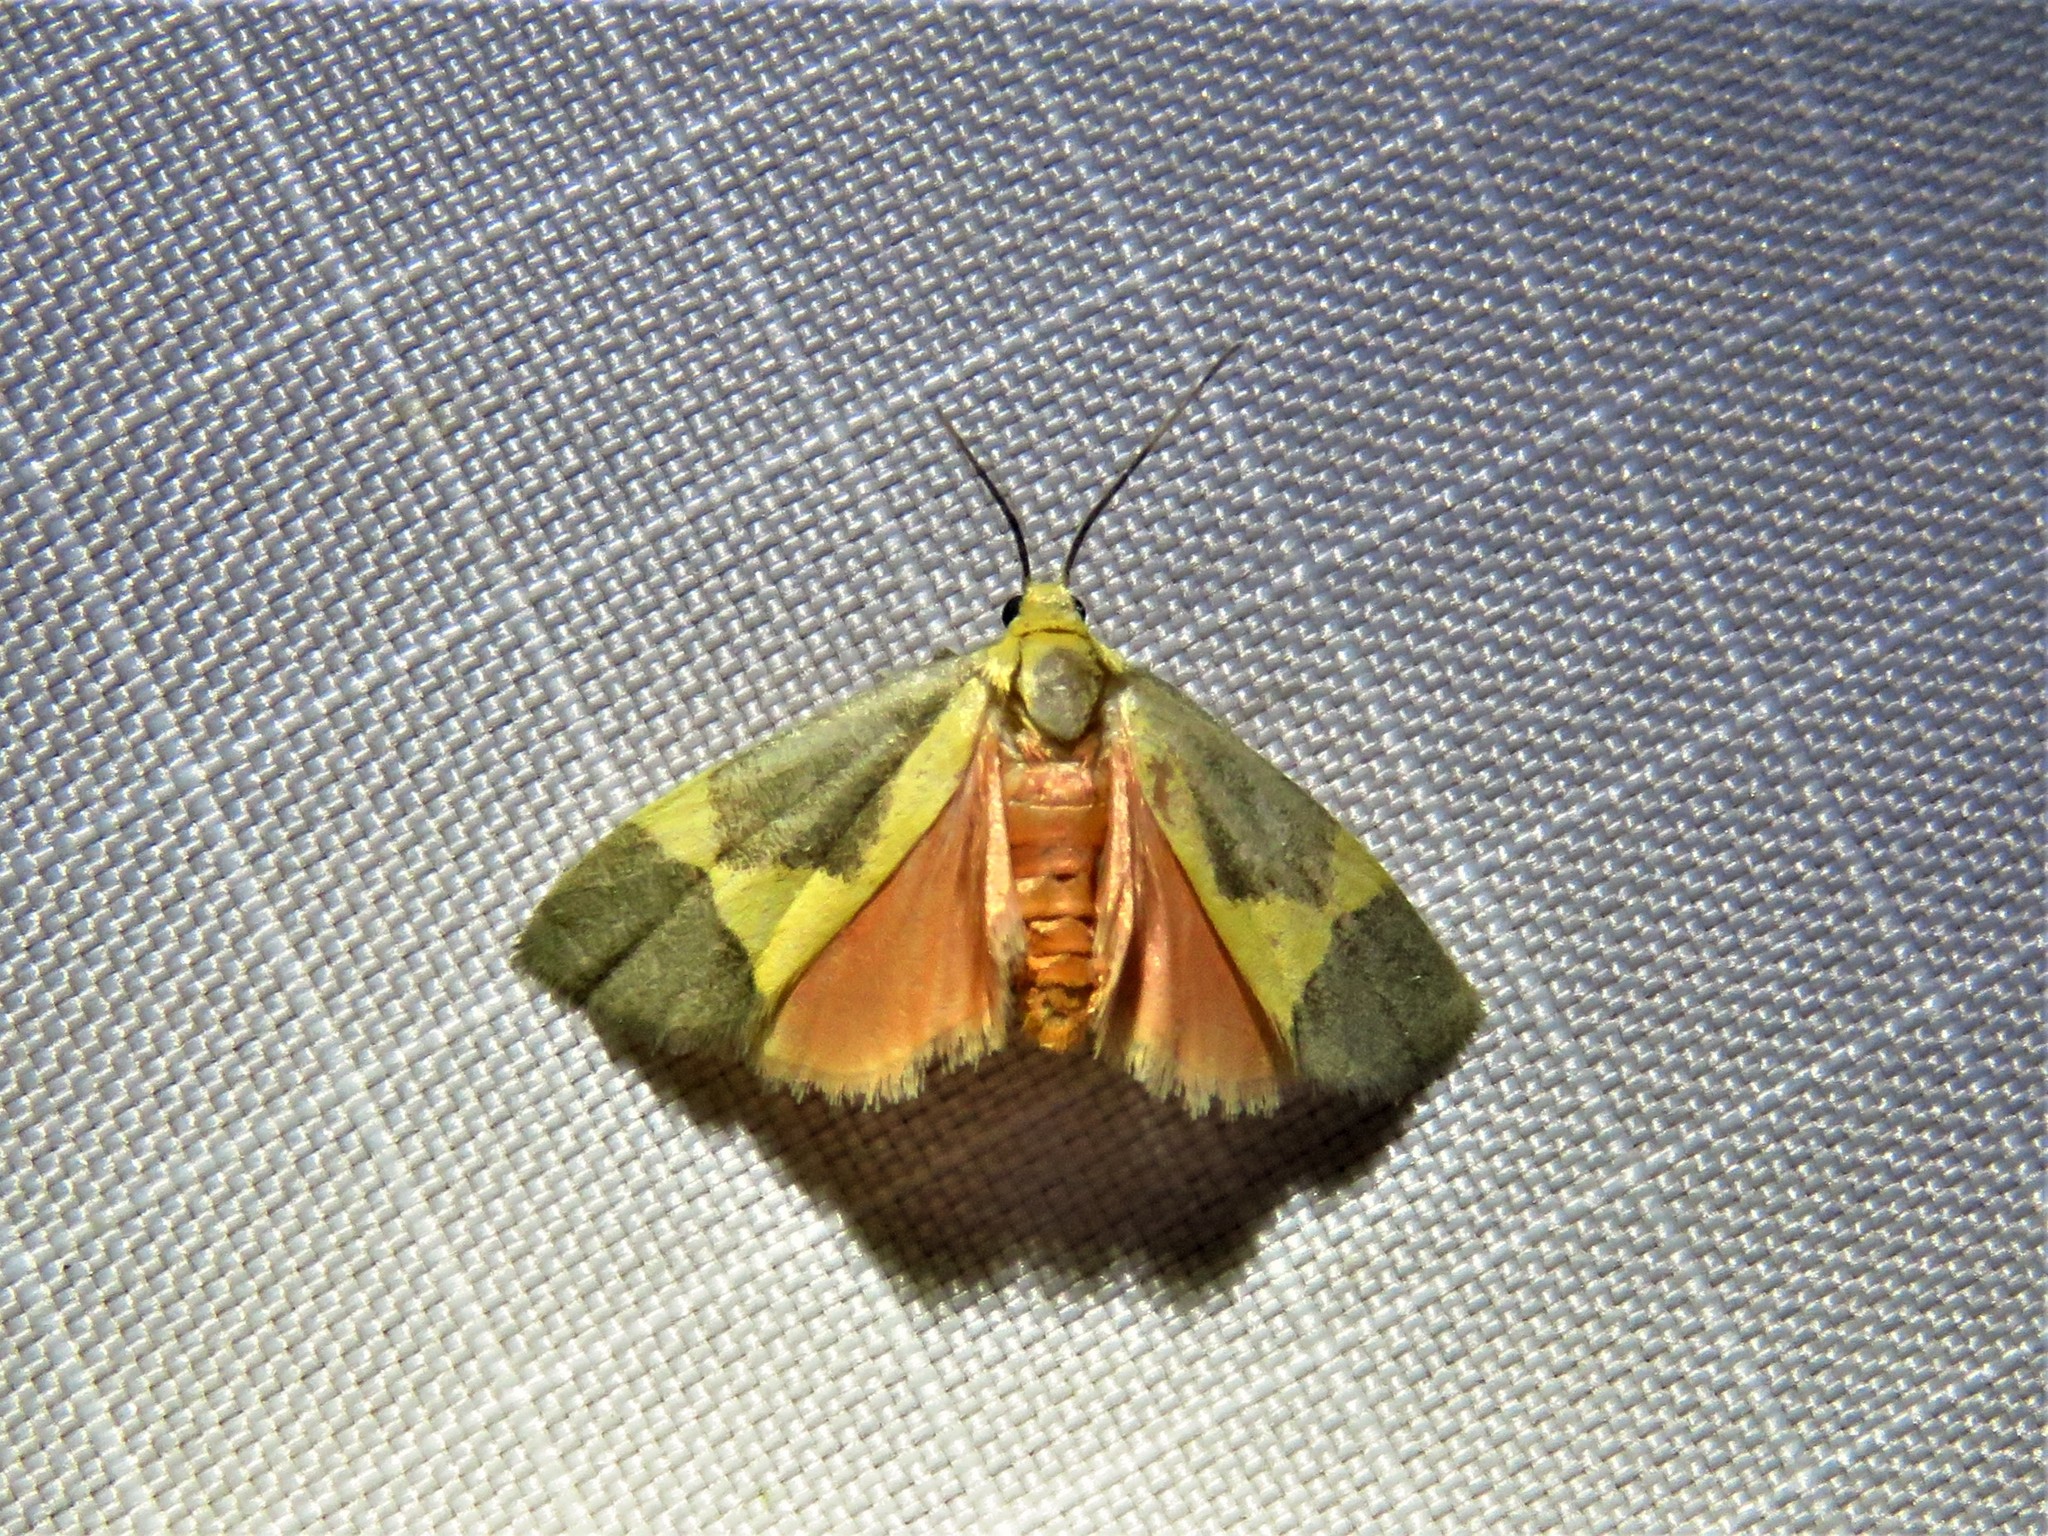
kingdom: Animalia
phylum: Arthropoda
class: Insecta
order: Lepidoptera
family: Erebidae
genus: Cisthene
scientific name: Cisthene unifascia
